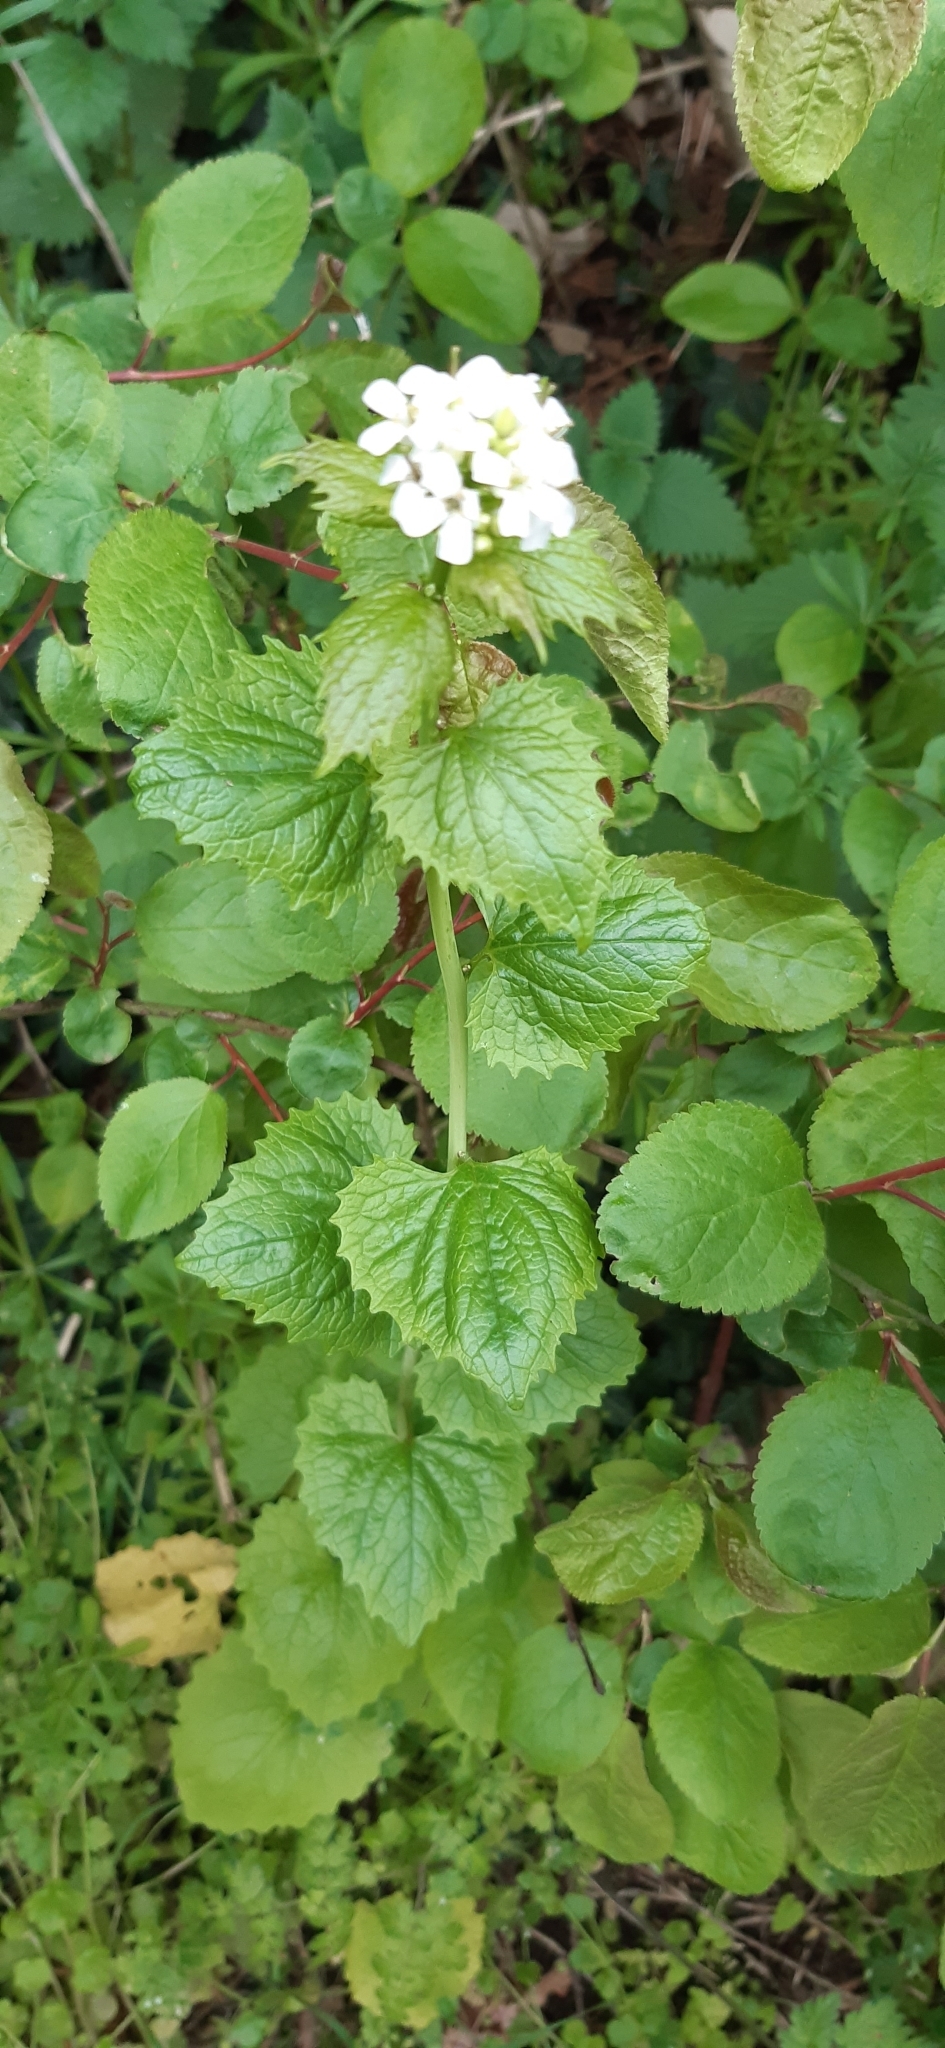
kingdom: Plantae
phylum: Tracheophyta
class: Magnoliopsida
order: Brassicales
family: Brassicaceae
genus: Alliaria
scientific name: Alliaria petiolata
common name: Garlic mustard
